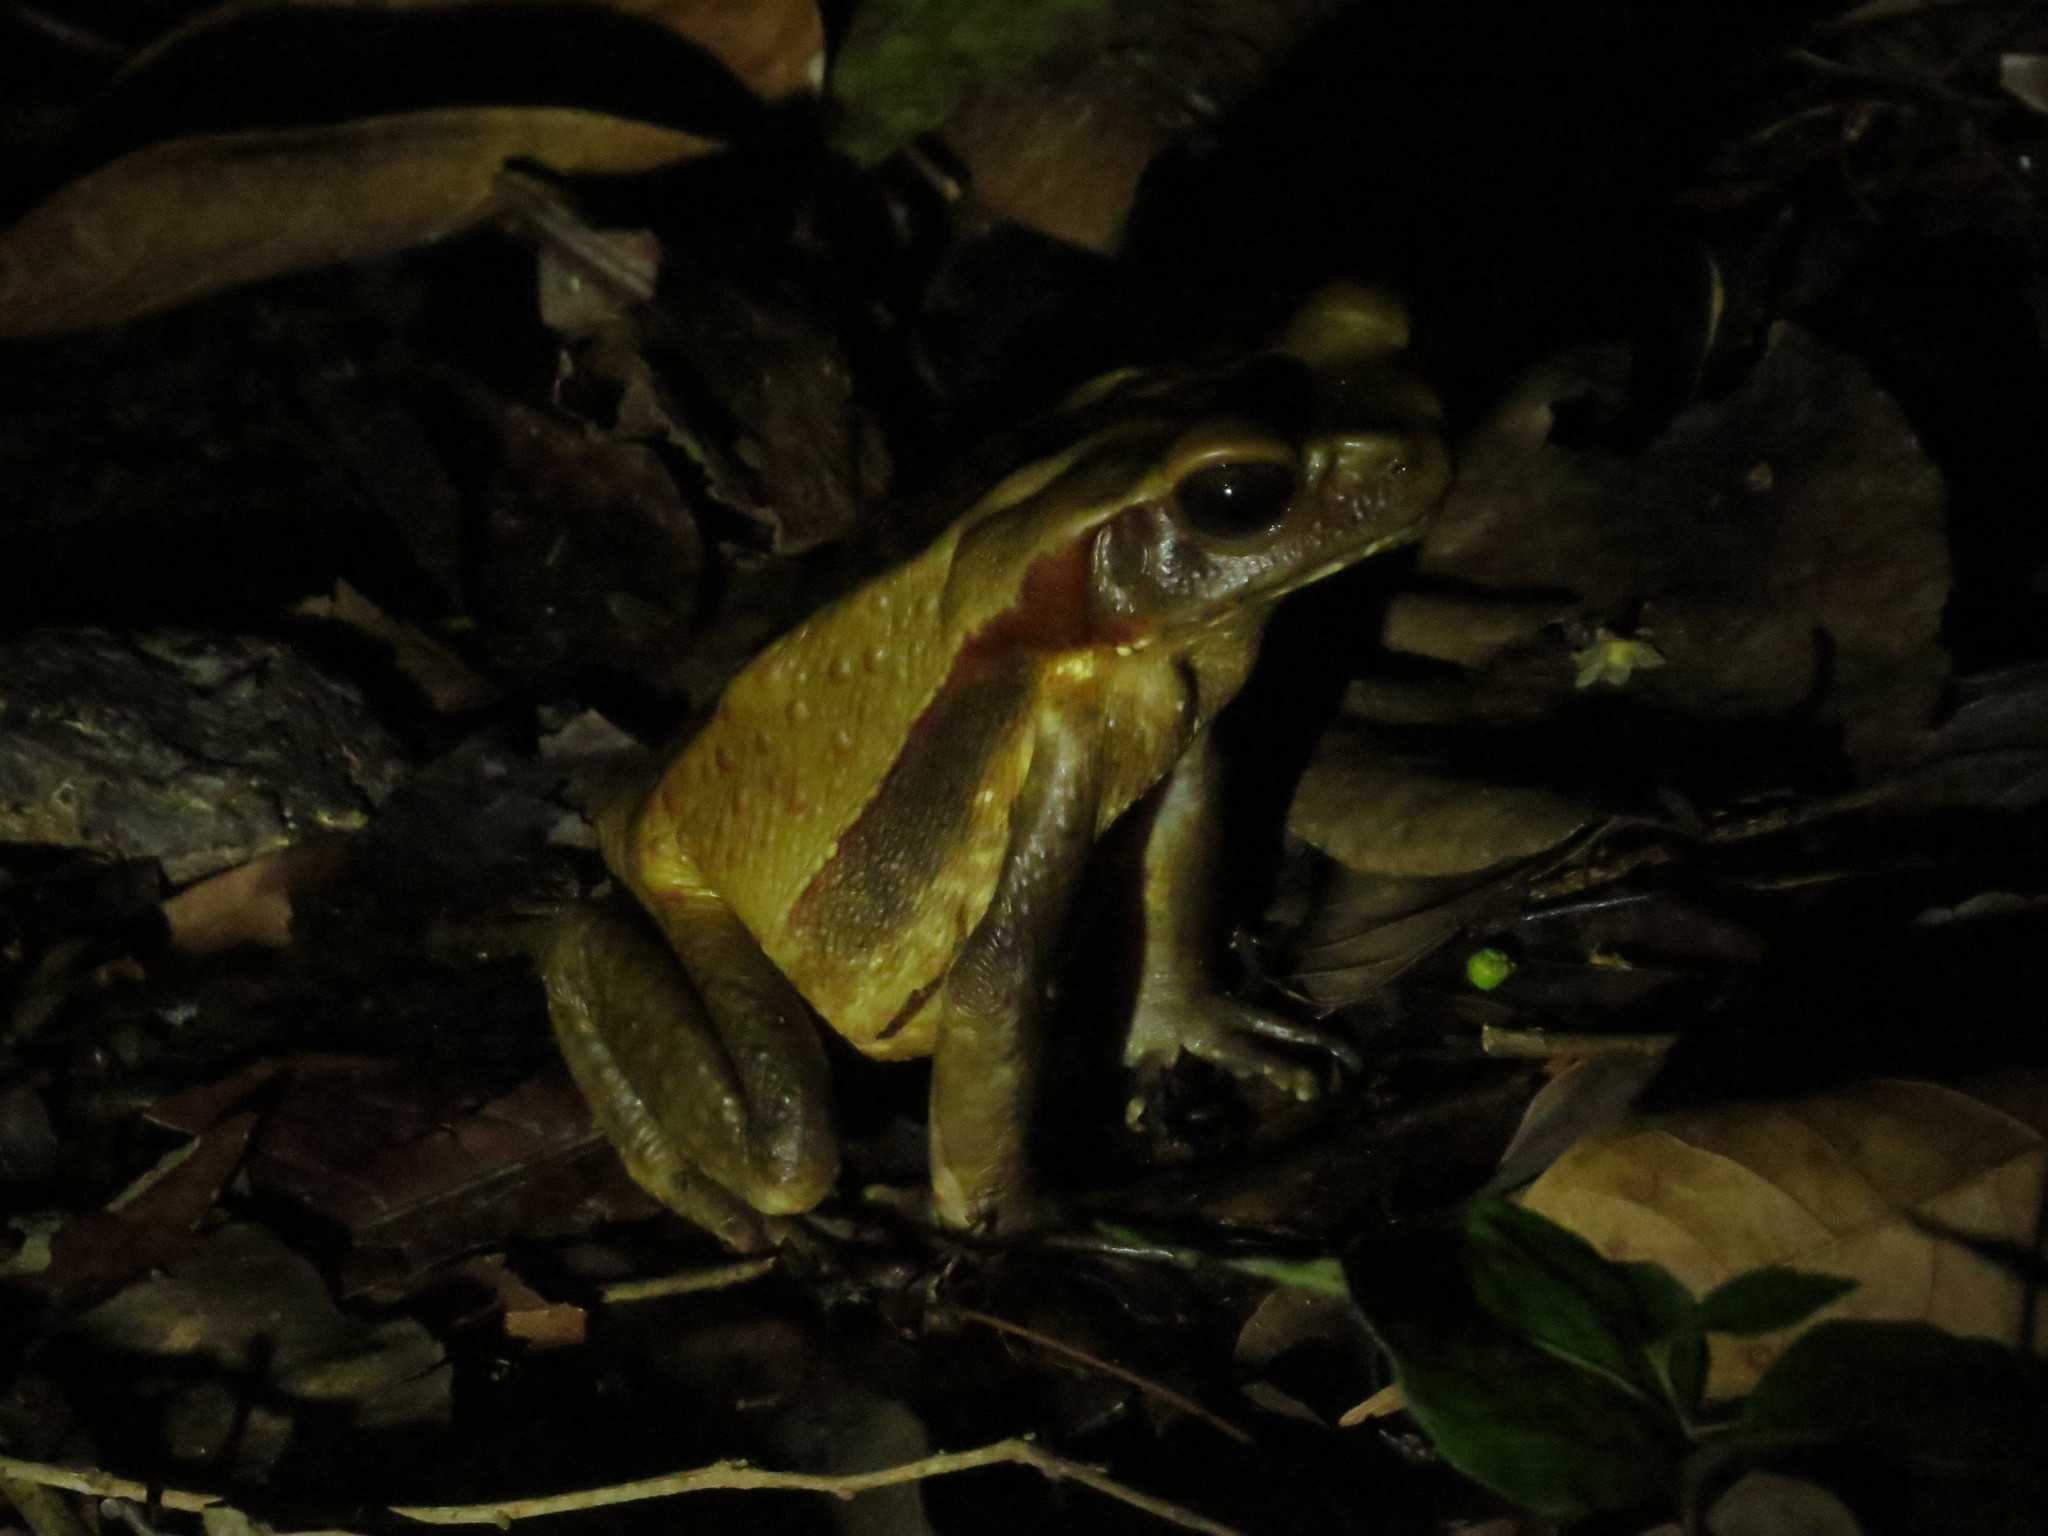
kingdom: Animalia
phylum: Chordata
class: Amphibia
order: Anura
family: Bufonidae
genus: Rhaebo
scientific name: Rhaebo guttatus
